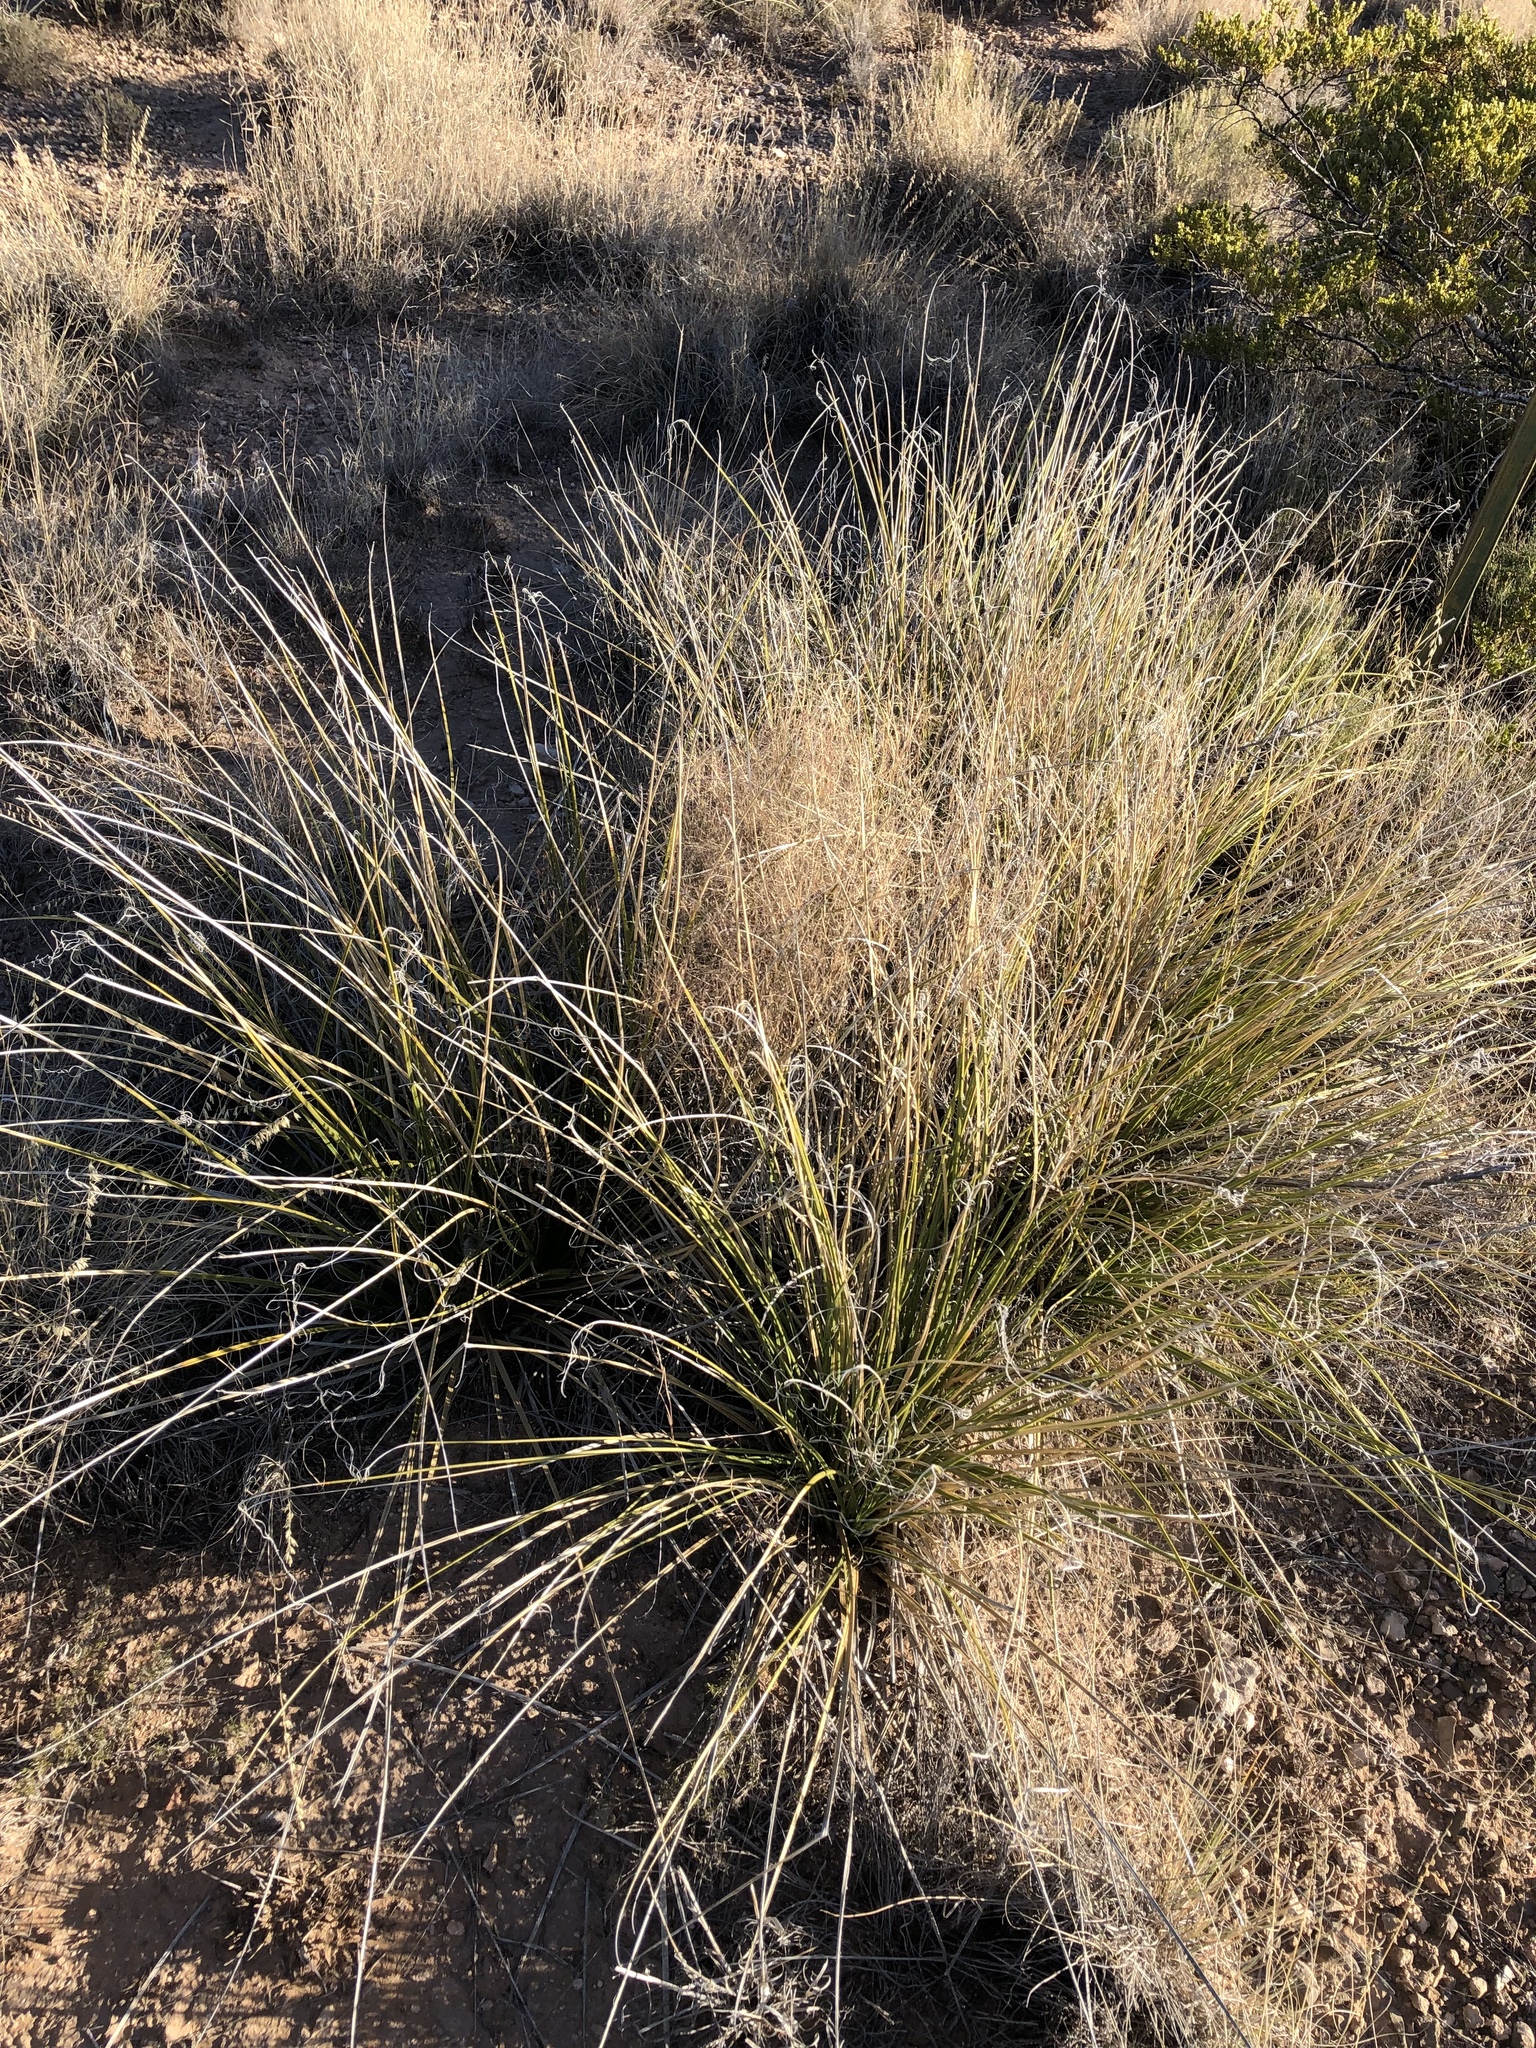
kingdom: Plantae
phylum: Tracheophyta
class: Liliopsida
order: Asparagales
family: Asparagaceae
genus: Nolina
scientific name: Nolina texana
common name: Texas sacahuiste
